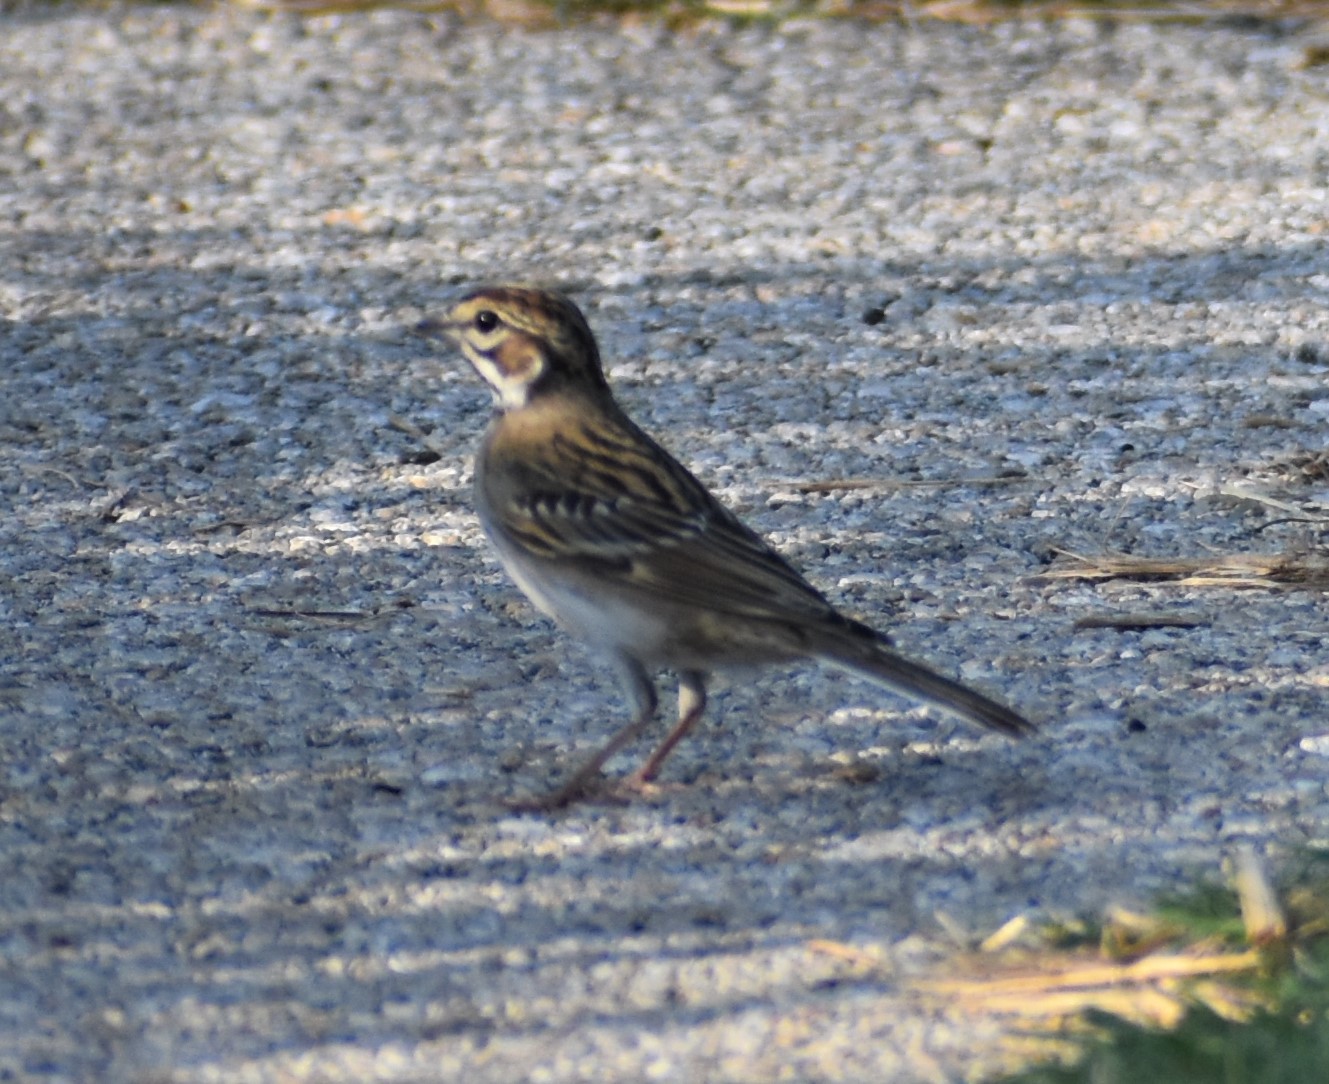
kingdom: Animalia
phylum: Chordata
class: Aves
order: Passeriformes
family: Passerellidae
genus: Chondestes
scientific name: Chondestes grammacus
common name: Lark sparrow
